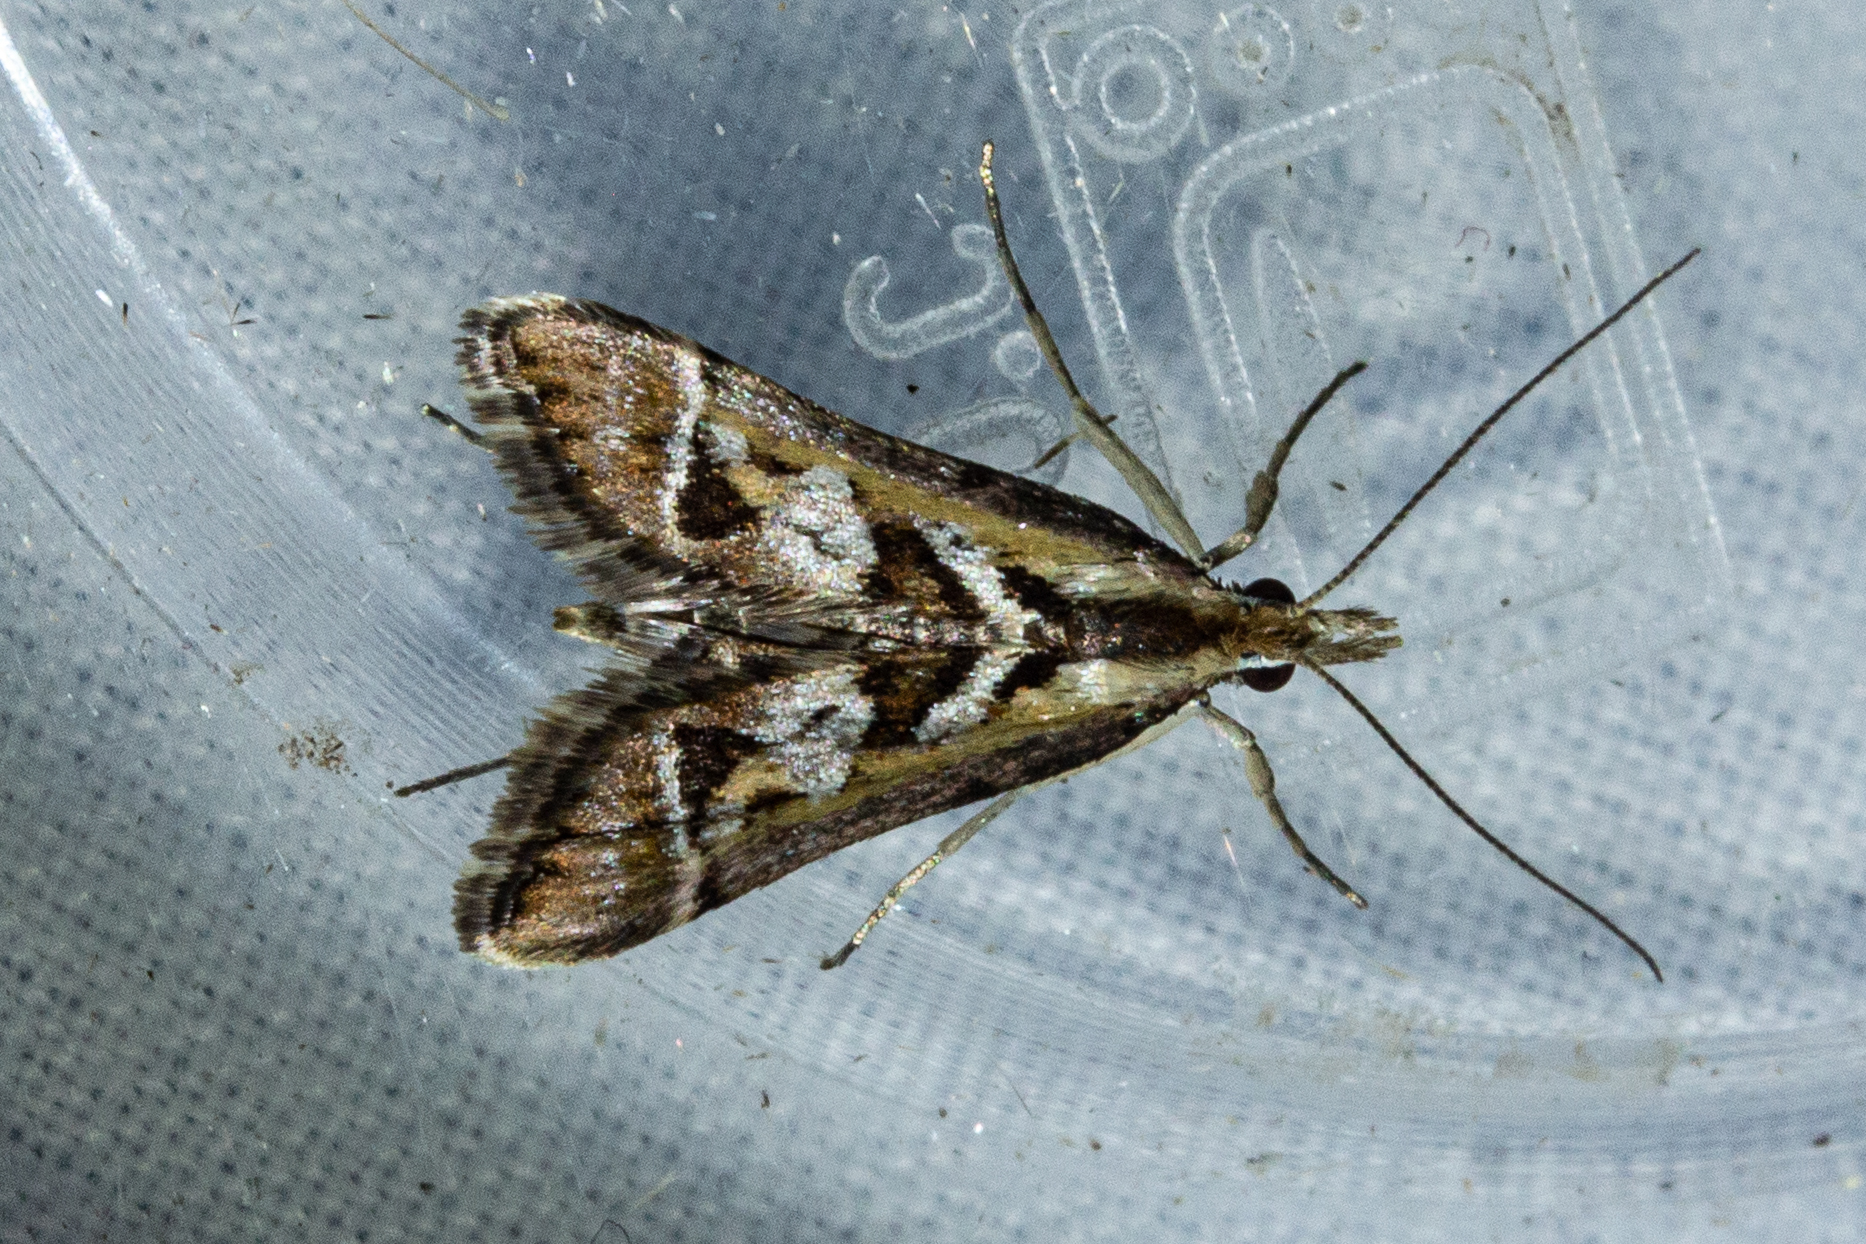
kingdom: Animalia
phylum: Arthropoda
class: Insecta
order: Lepidoptera
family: Crambidae
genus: Diasemia
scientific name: Diasemia grammalis
